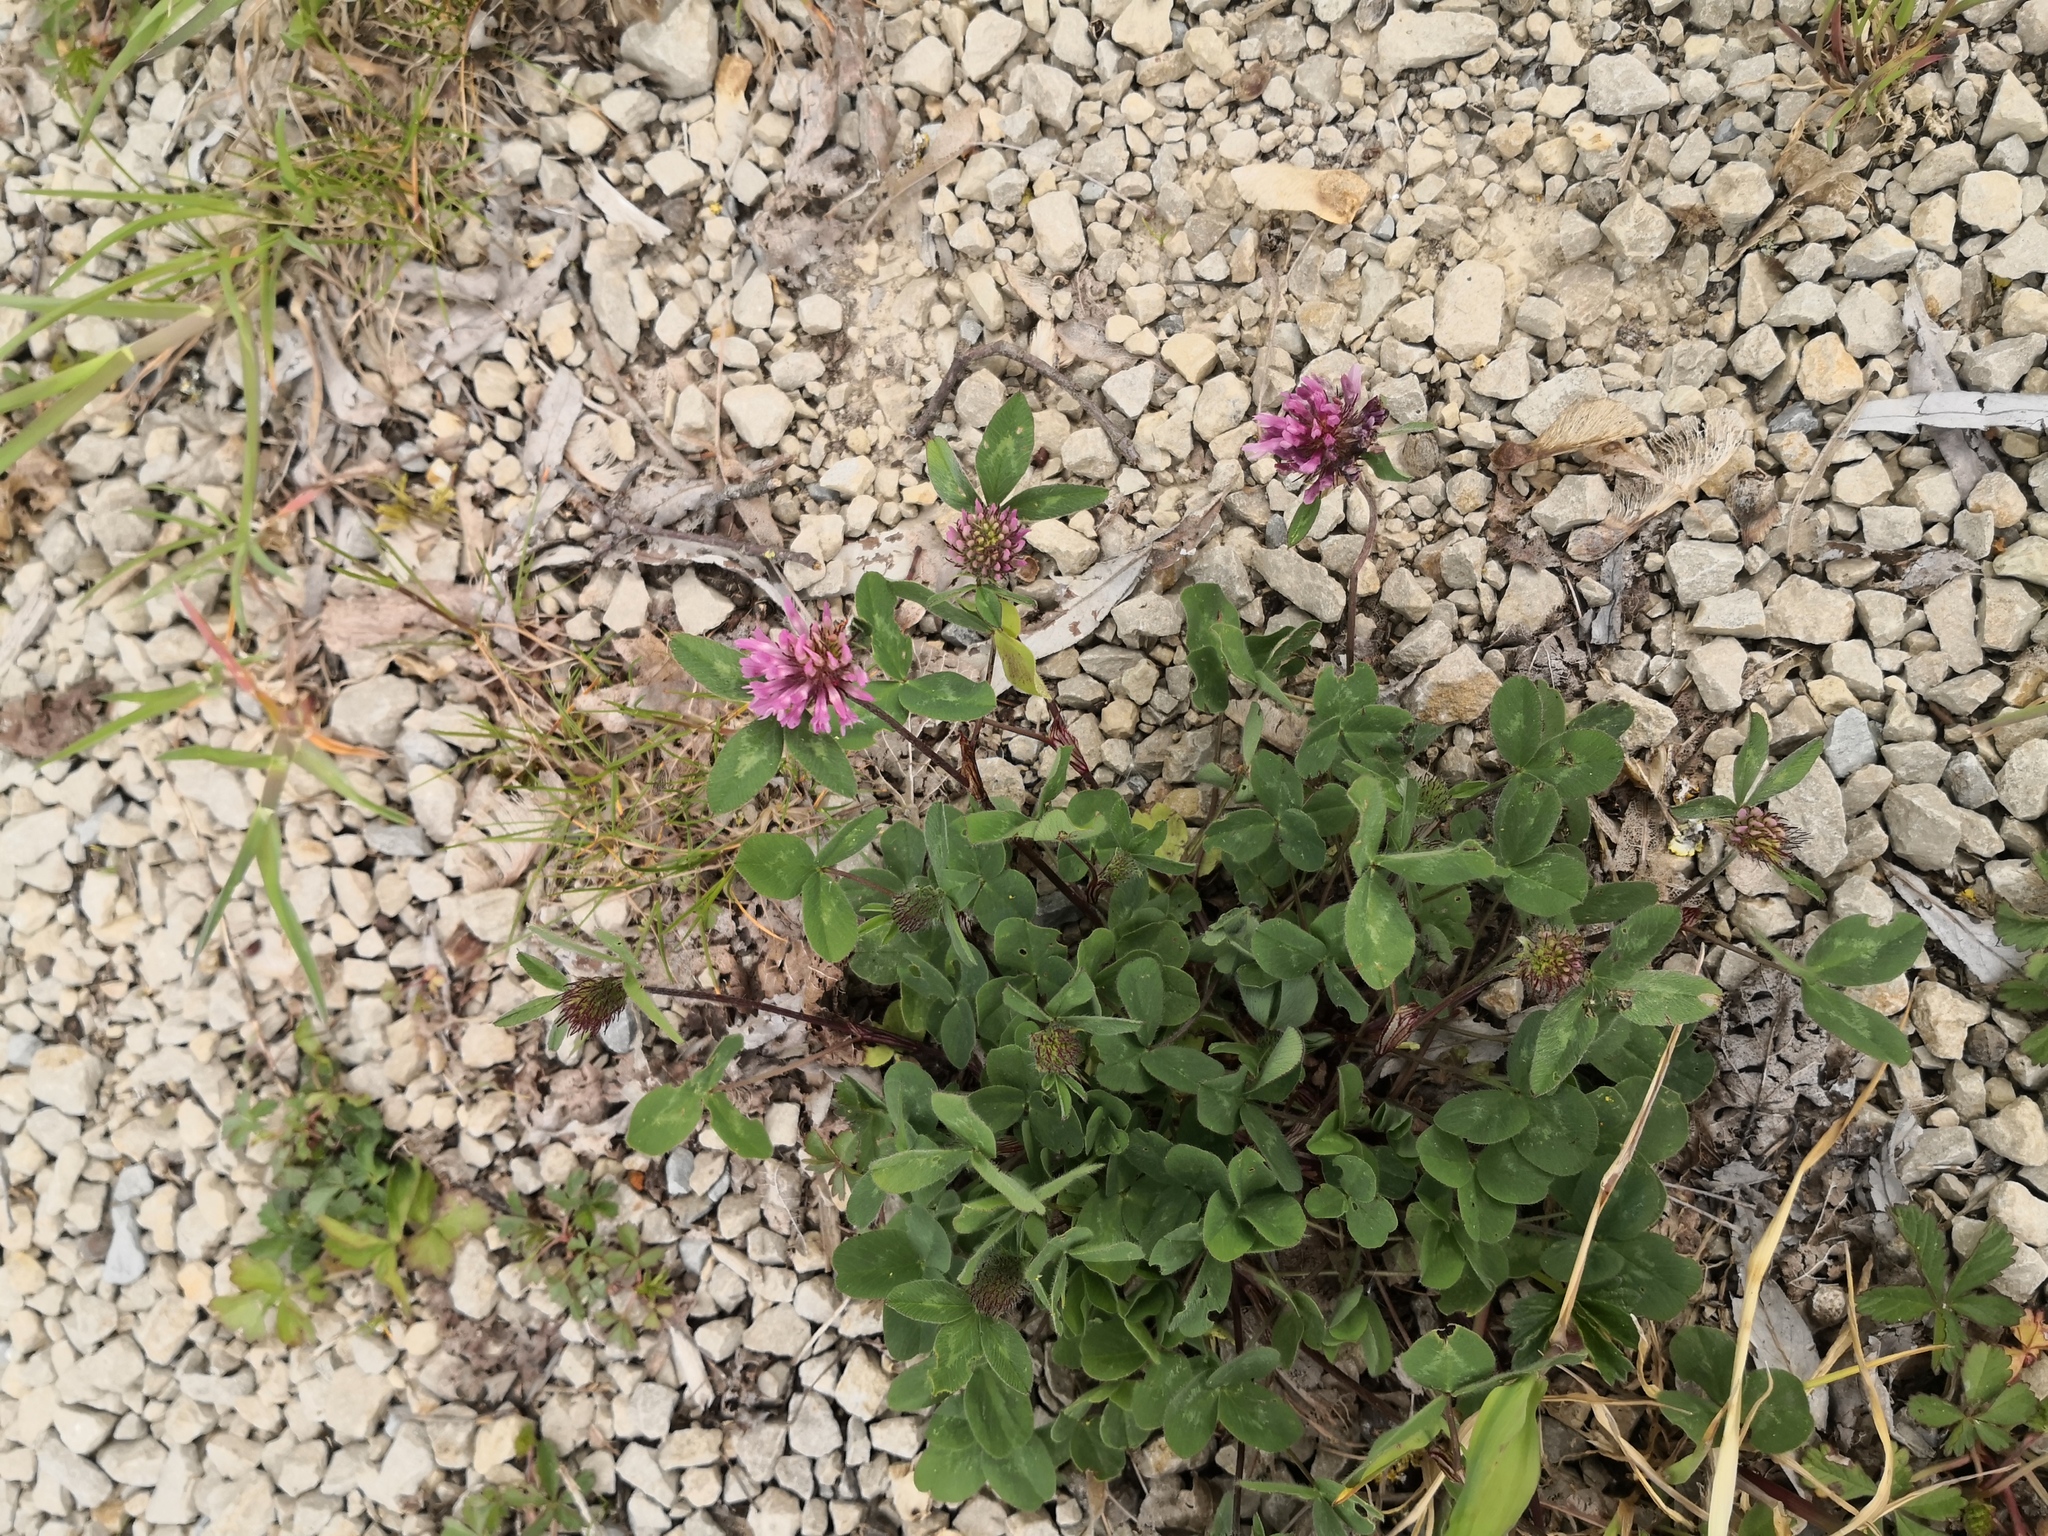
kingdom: Plantae
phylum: Tracheophyta
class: Magnoliopsida
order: Fabales
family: Fabaceae
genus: Trifolium
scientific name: Trifolium pratense
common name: Red clover
